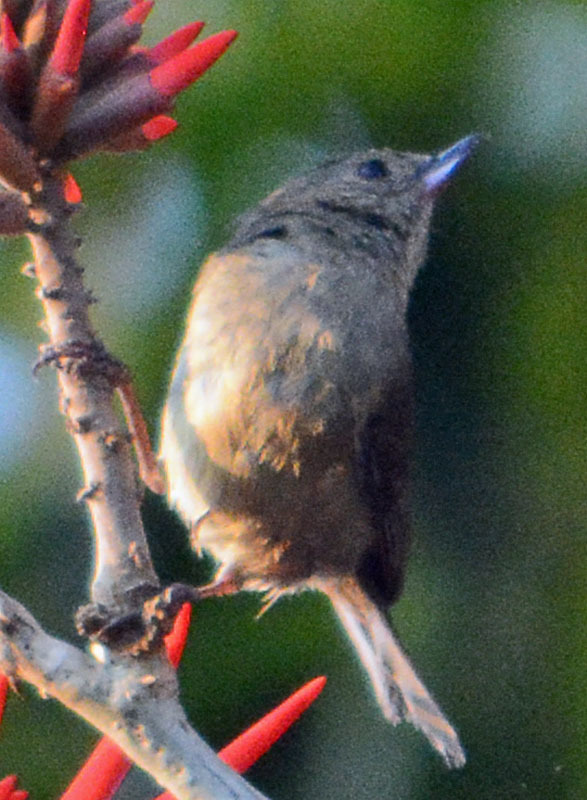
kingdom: Animalia
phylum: Chordata
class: Aves
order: Passeriformes
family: Thraupidae
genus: Diglossa
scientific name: Diglossa baritula
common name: Cinnamon-bellied flowerpiercer
